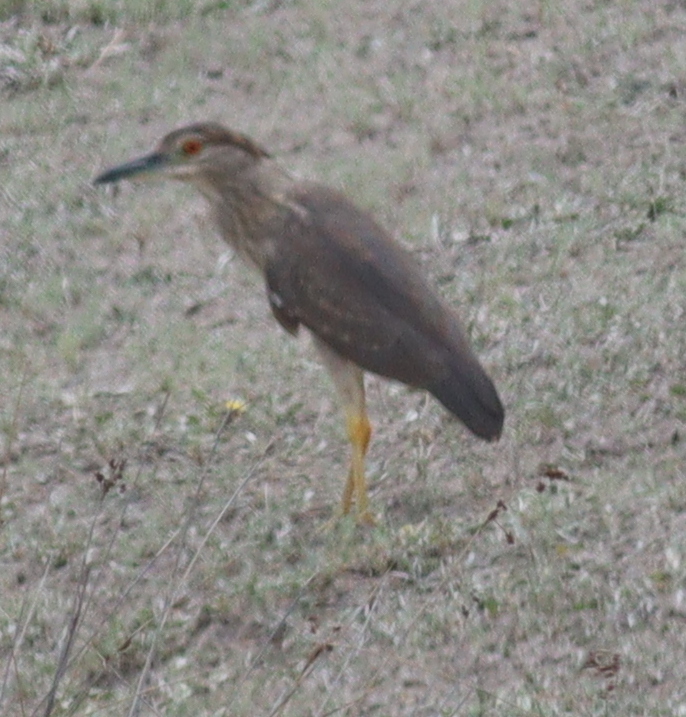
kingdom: Animalia
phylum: Chordata
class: Aves
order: Pelecaniformes
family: Ardeidae
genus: Nycticorax
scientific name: Nycticorax nycticorax
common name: Black-crowned night heron
